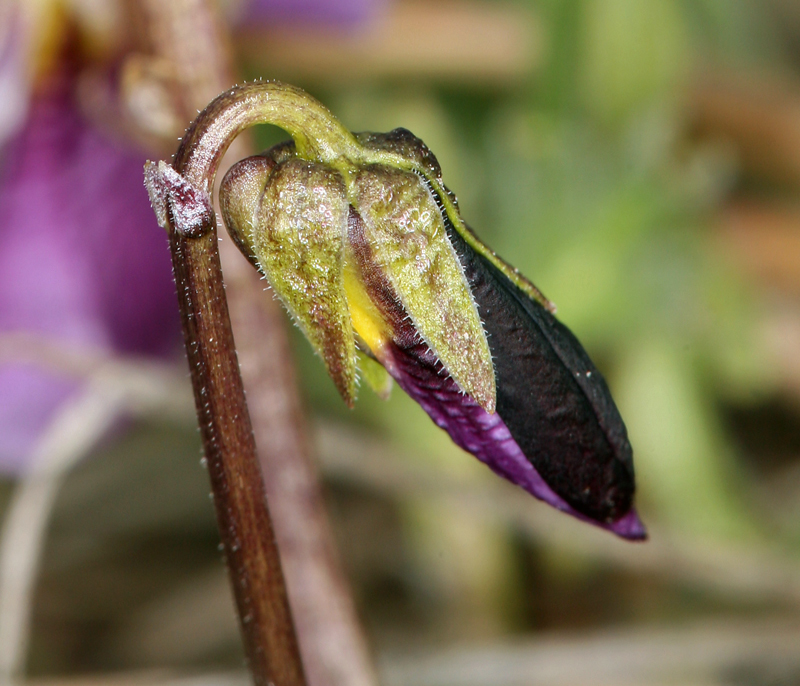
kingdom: Plantae
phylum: Tracheophyta
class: Magnoliopsida
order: Malpighiales
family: Violaceae
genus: Viola
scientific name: Viola beckwithii
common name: Beckwith's violet
